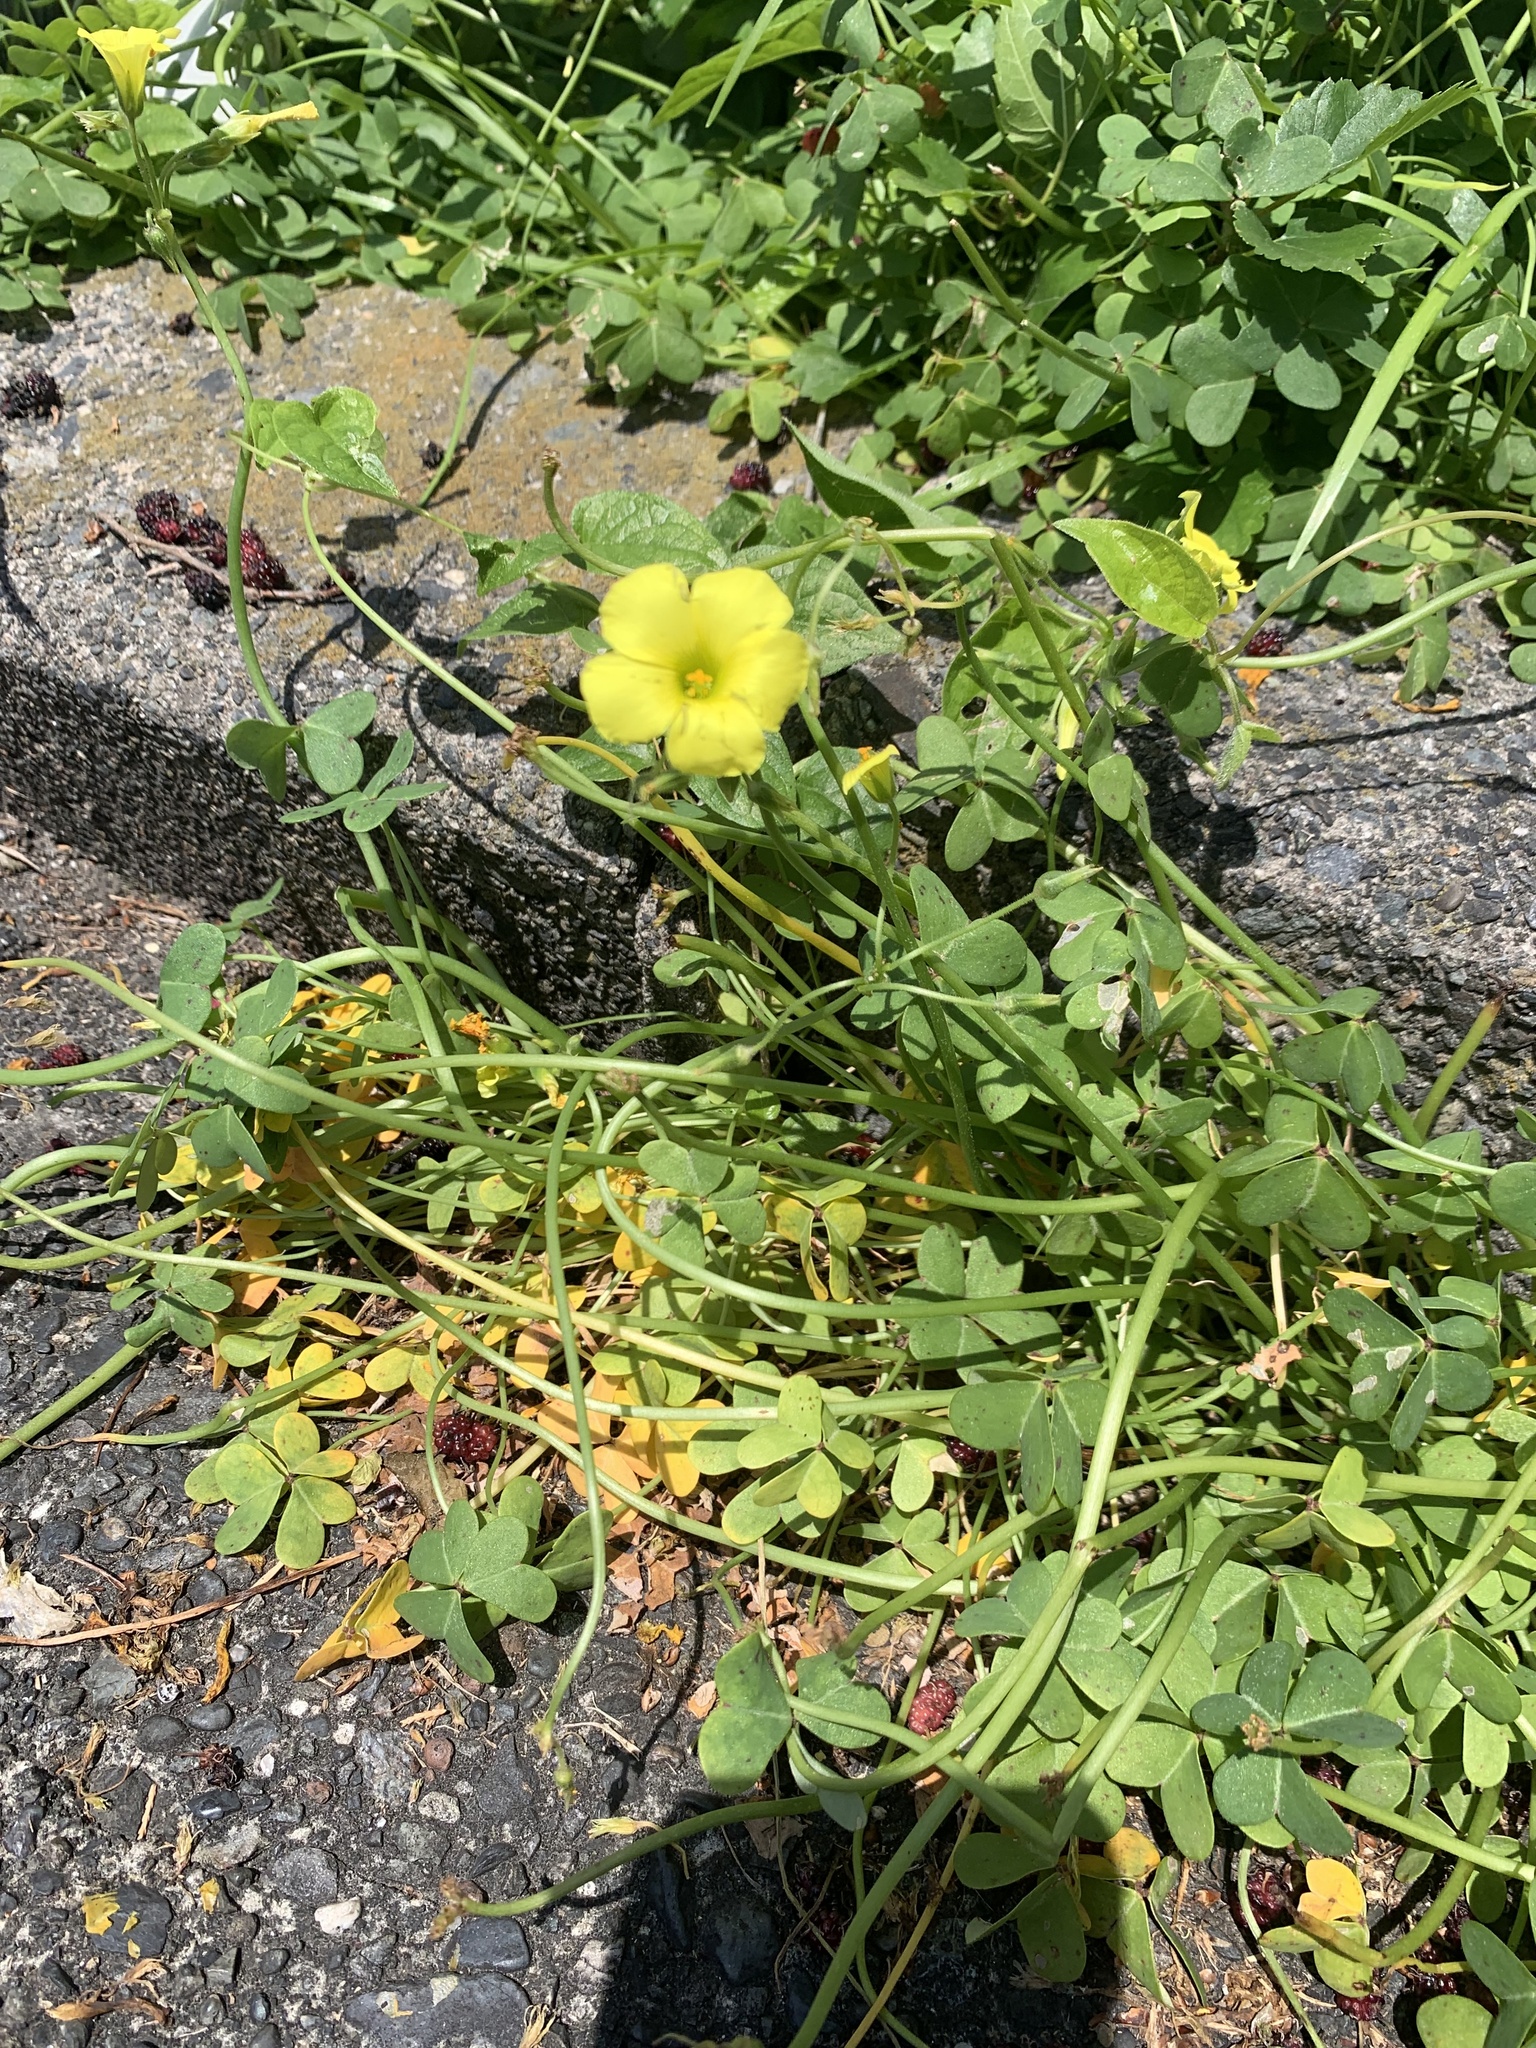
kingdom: Plantae
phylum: Tracheophyta
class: Magnoliopsida
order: Oxalidales
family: Oxalidaceae
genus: Oxalis
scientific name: Oxalis pes-caprae
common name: Bermuda-buttercup
